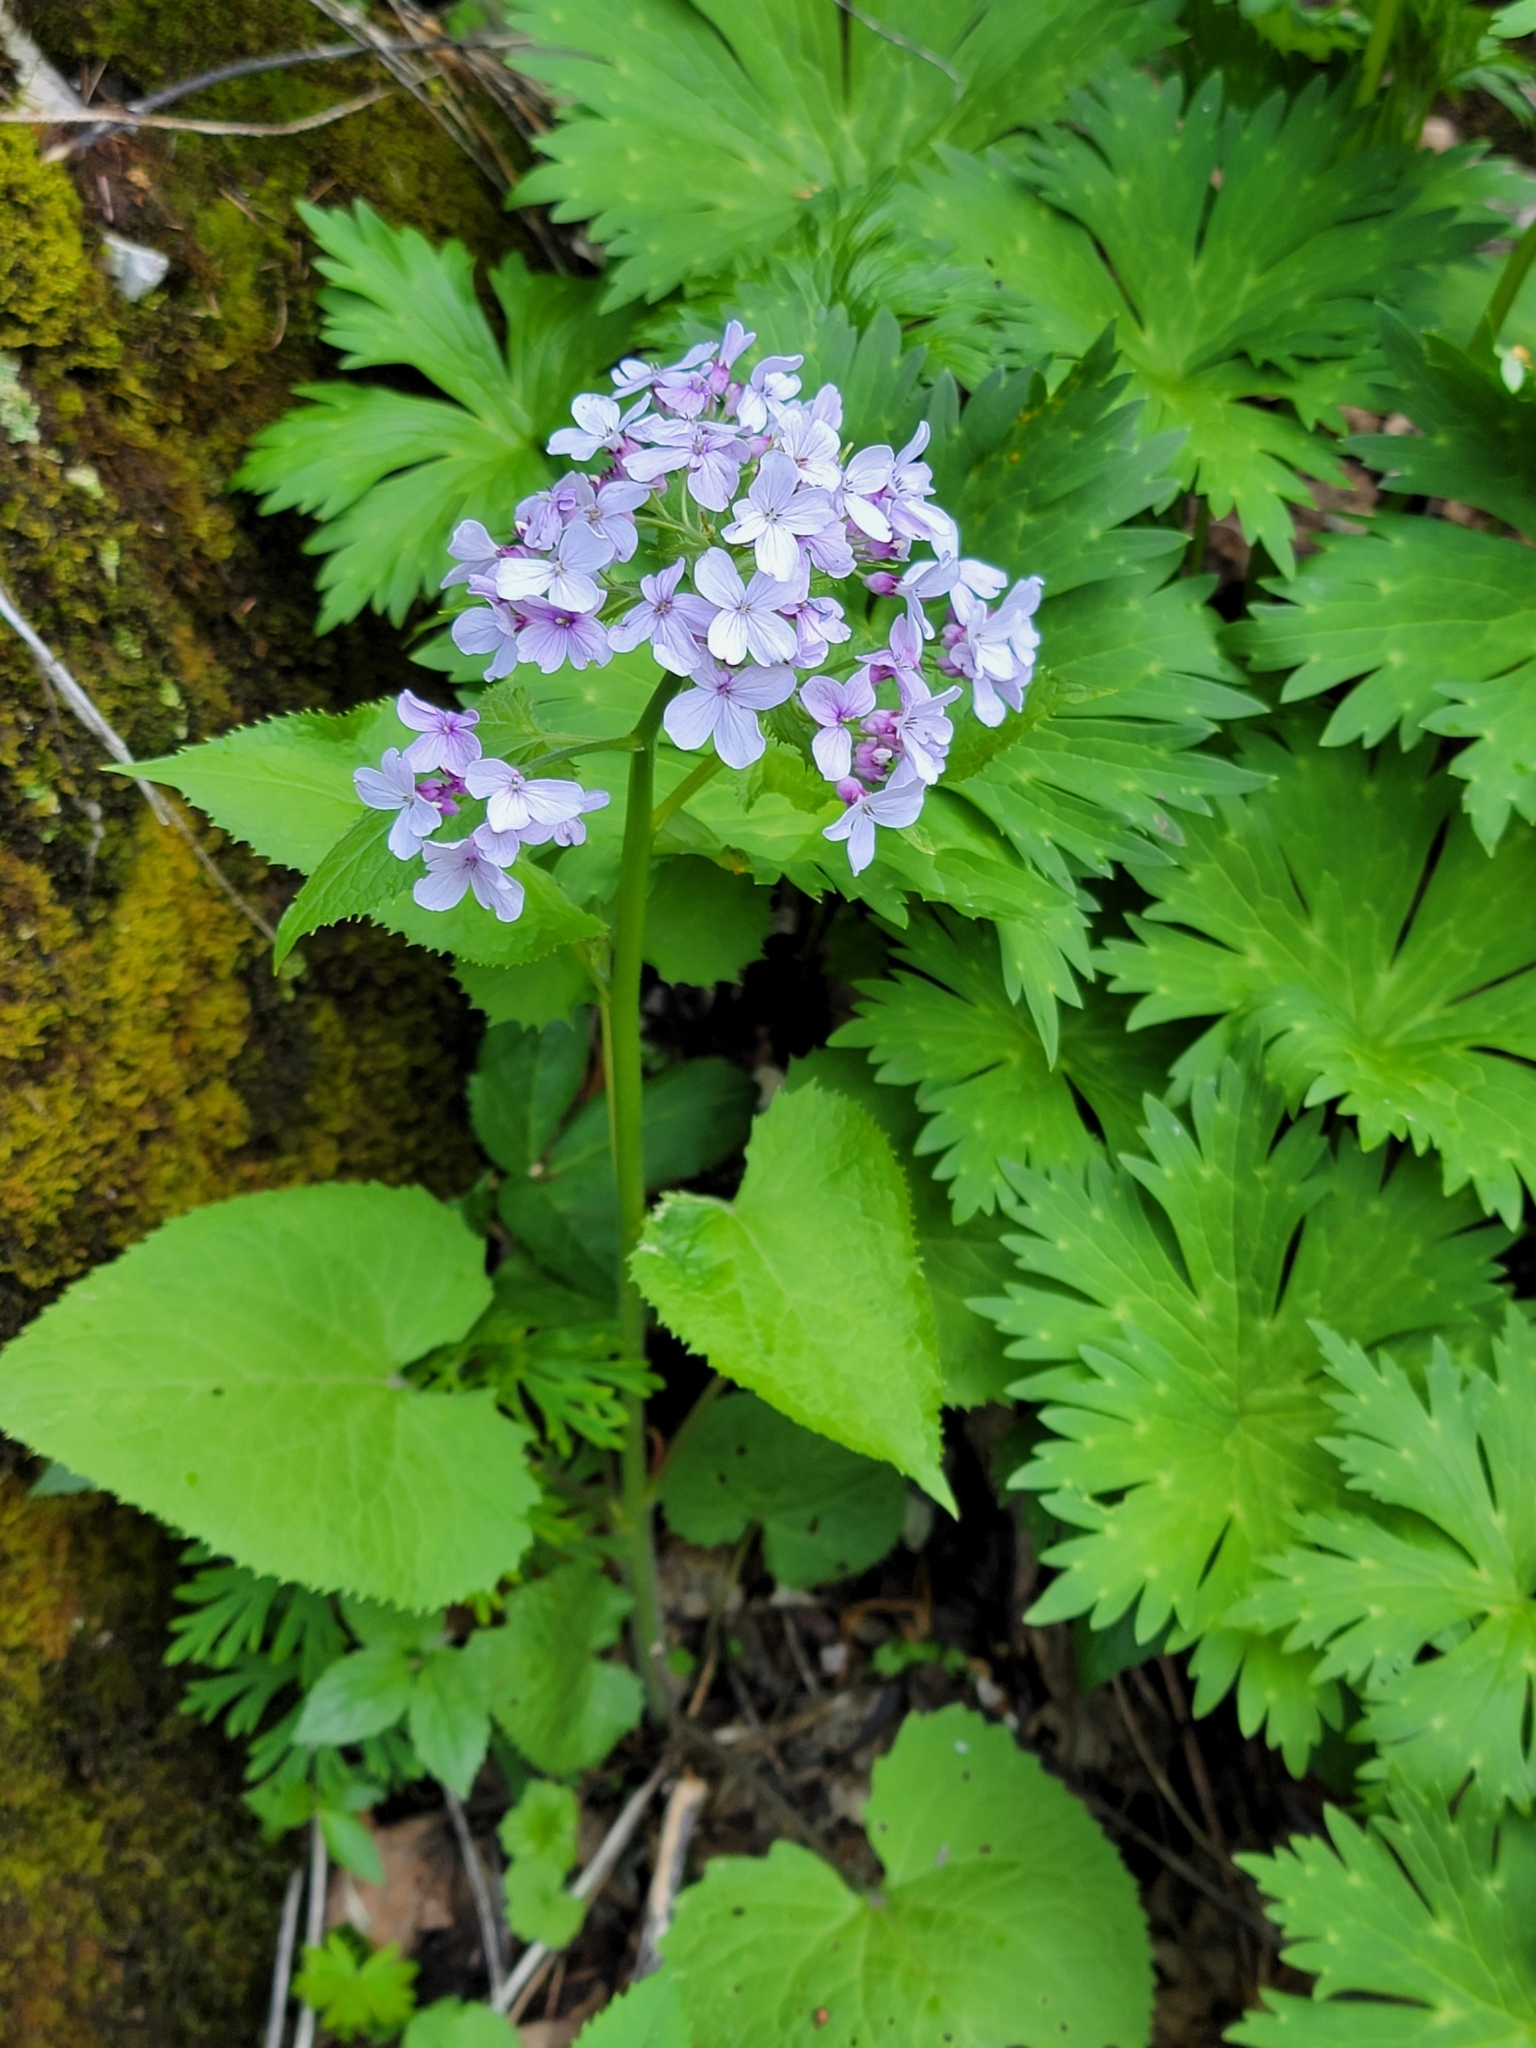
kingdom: Plantae
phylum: Tracheophyta
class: Magnoliopsida
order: Brassicales
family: Brassicaceae
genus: Lunaria
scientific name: Lunaria rediviva
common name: Perennial honesty
